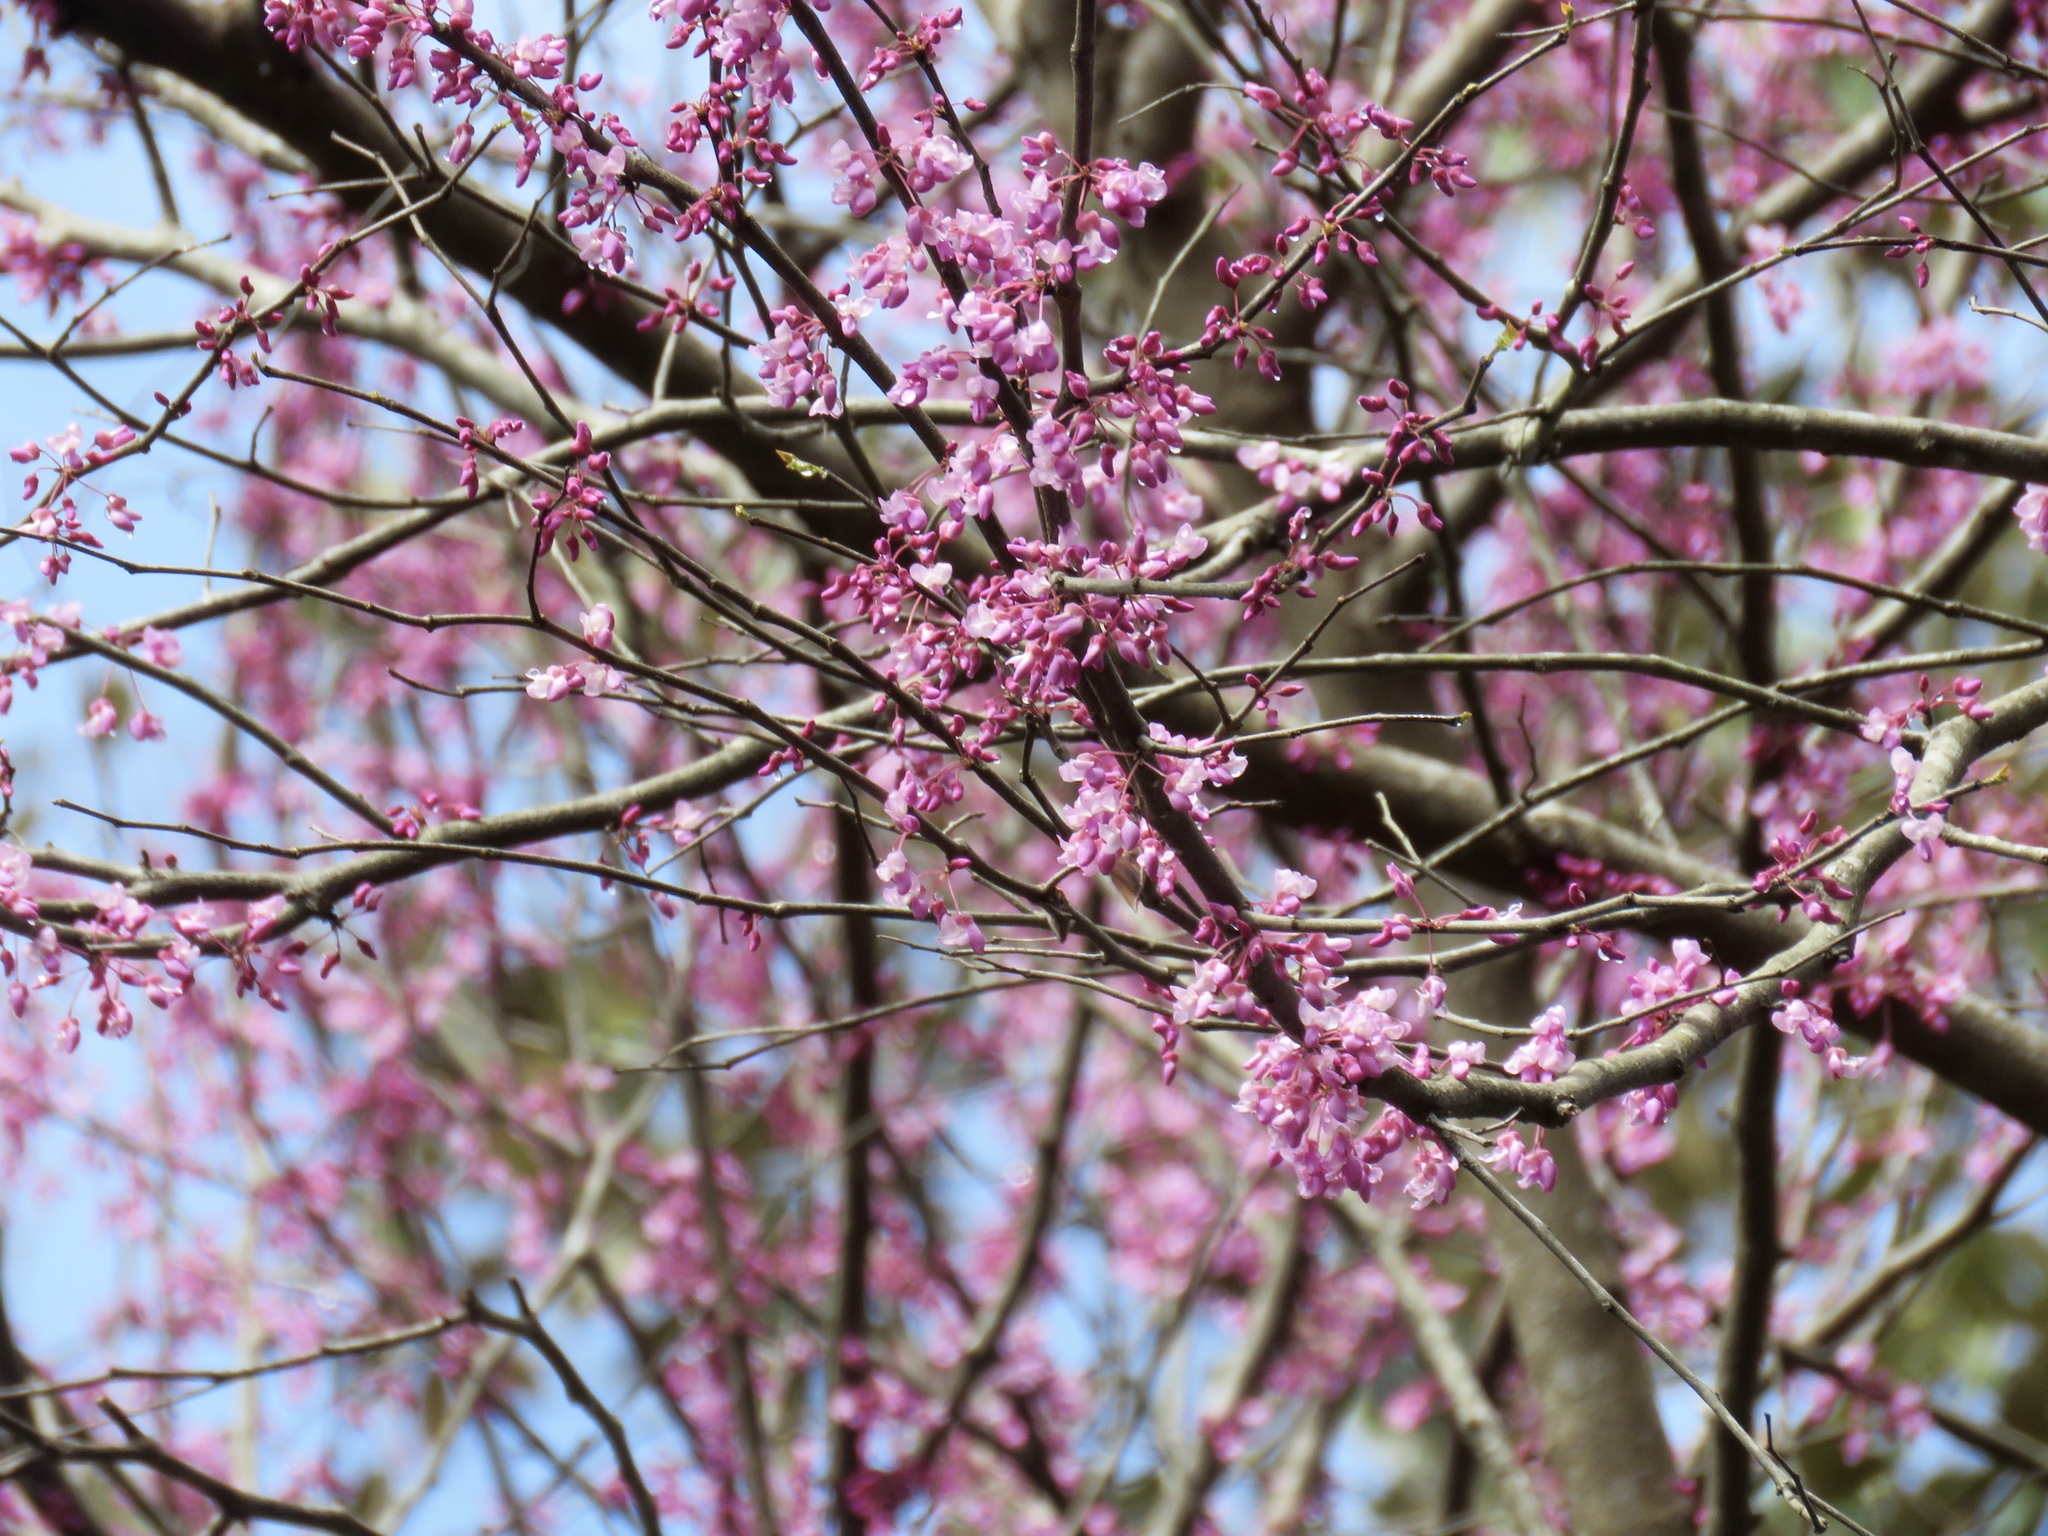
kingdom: Plantae
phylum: Tracheophyta
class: Magnoliopsida
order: Fabales
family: Fabaceae
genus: Cercis
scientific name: Cercis canadensis
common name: Eastern redbud
